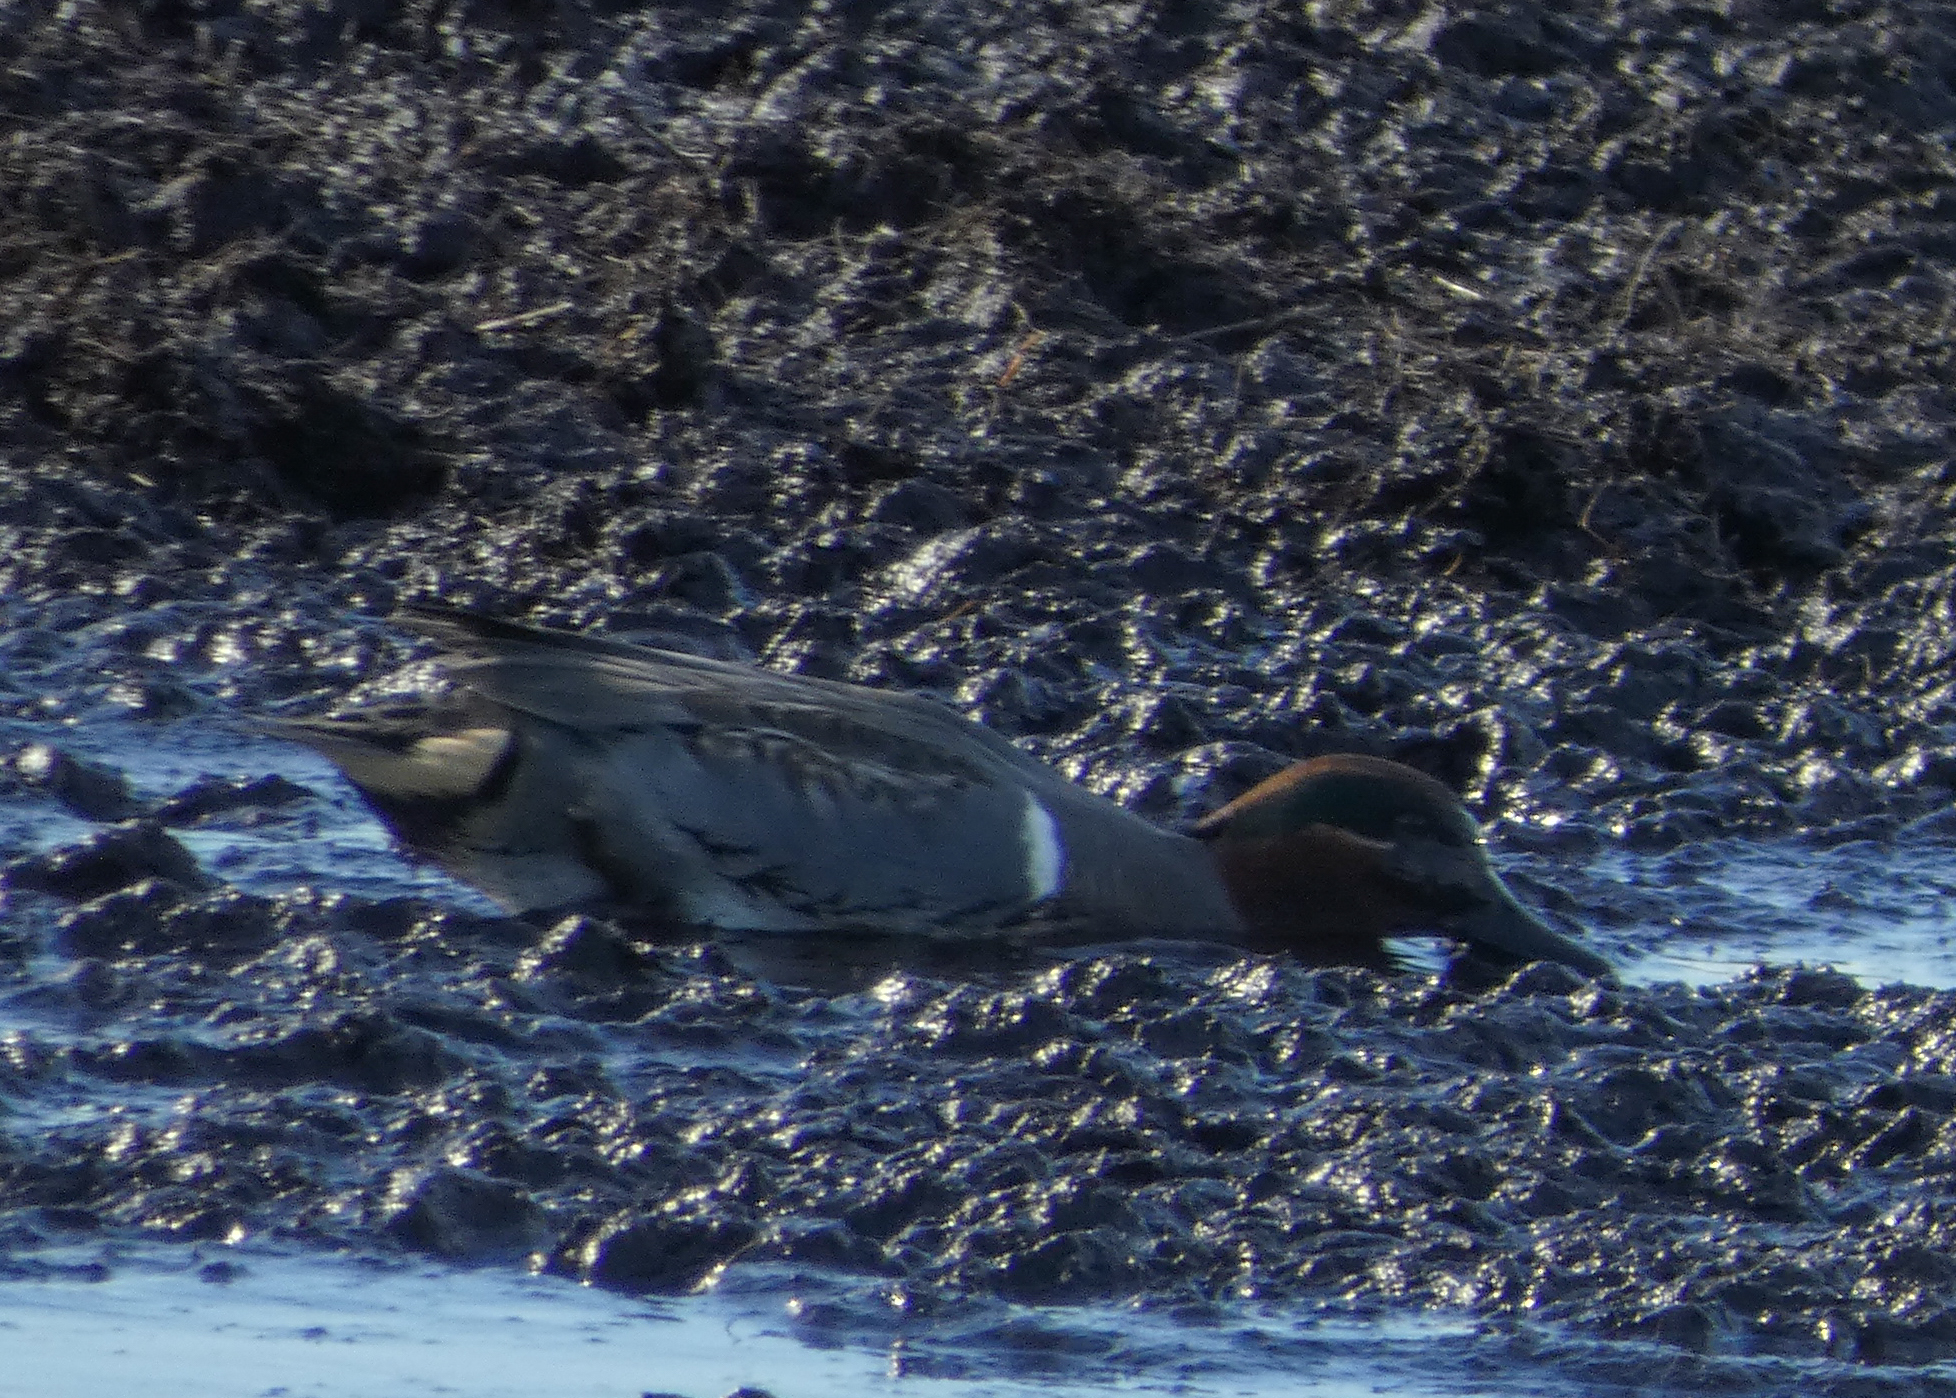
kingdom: Animalia
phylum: Chordata
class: Aves
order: Anseriformes
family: Anatidae
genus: Anas
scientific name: Anas crecca
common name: Eurasian teal
